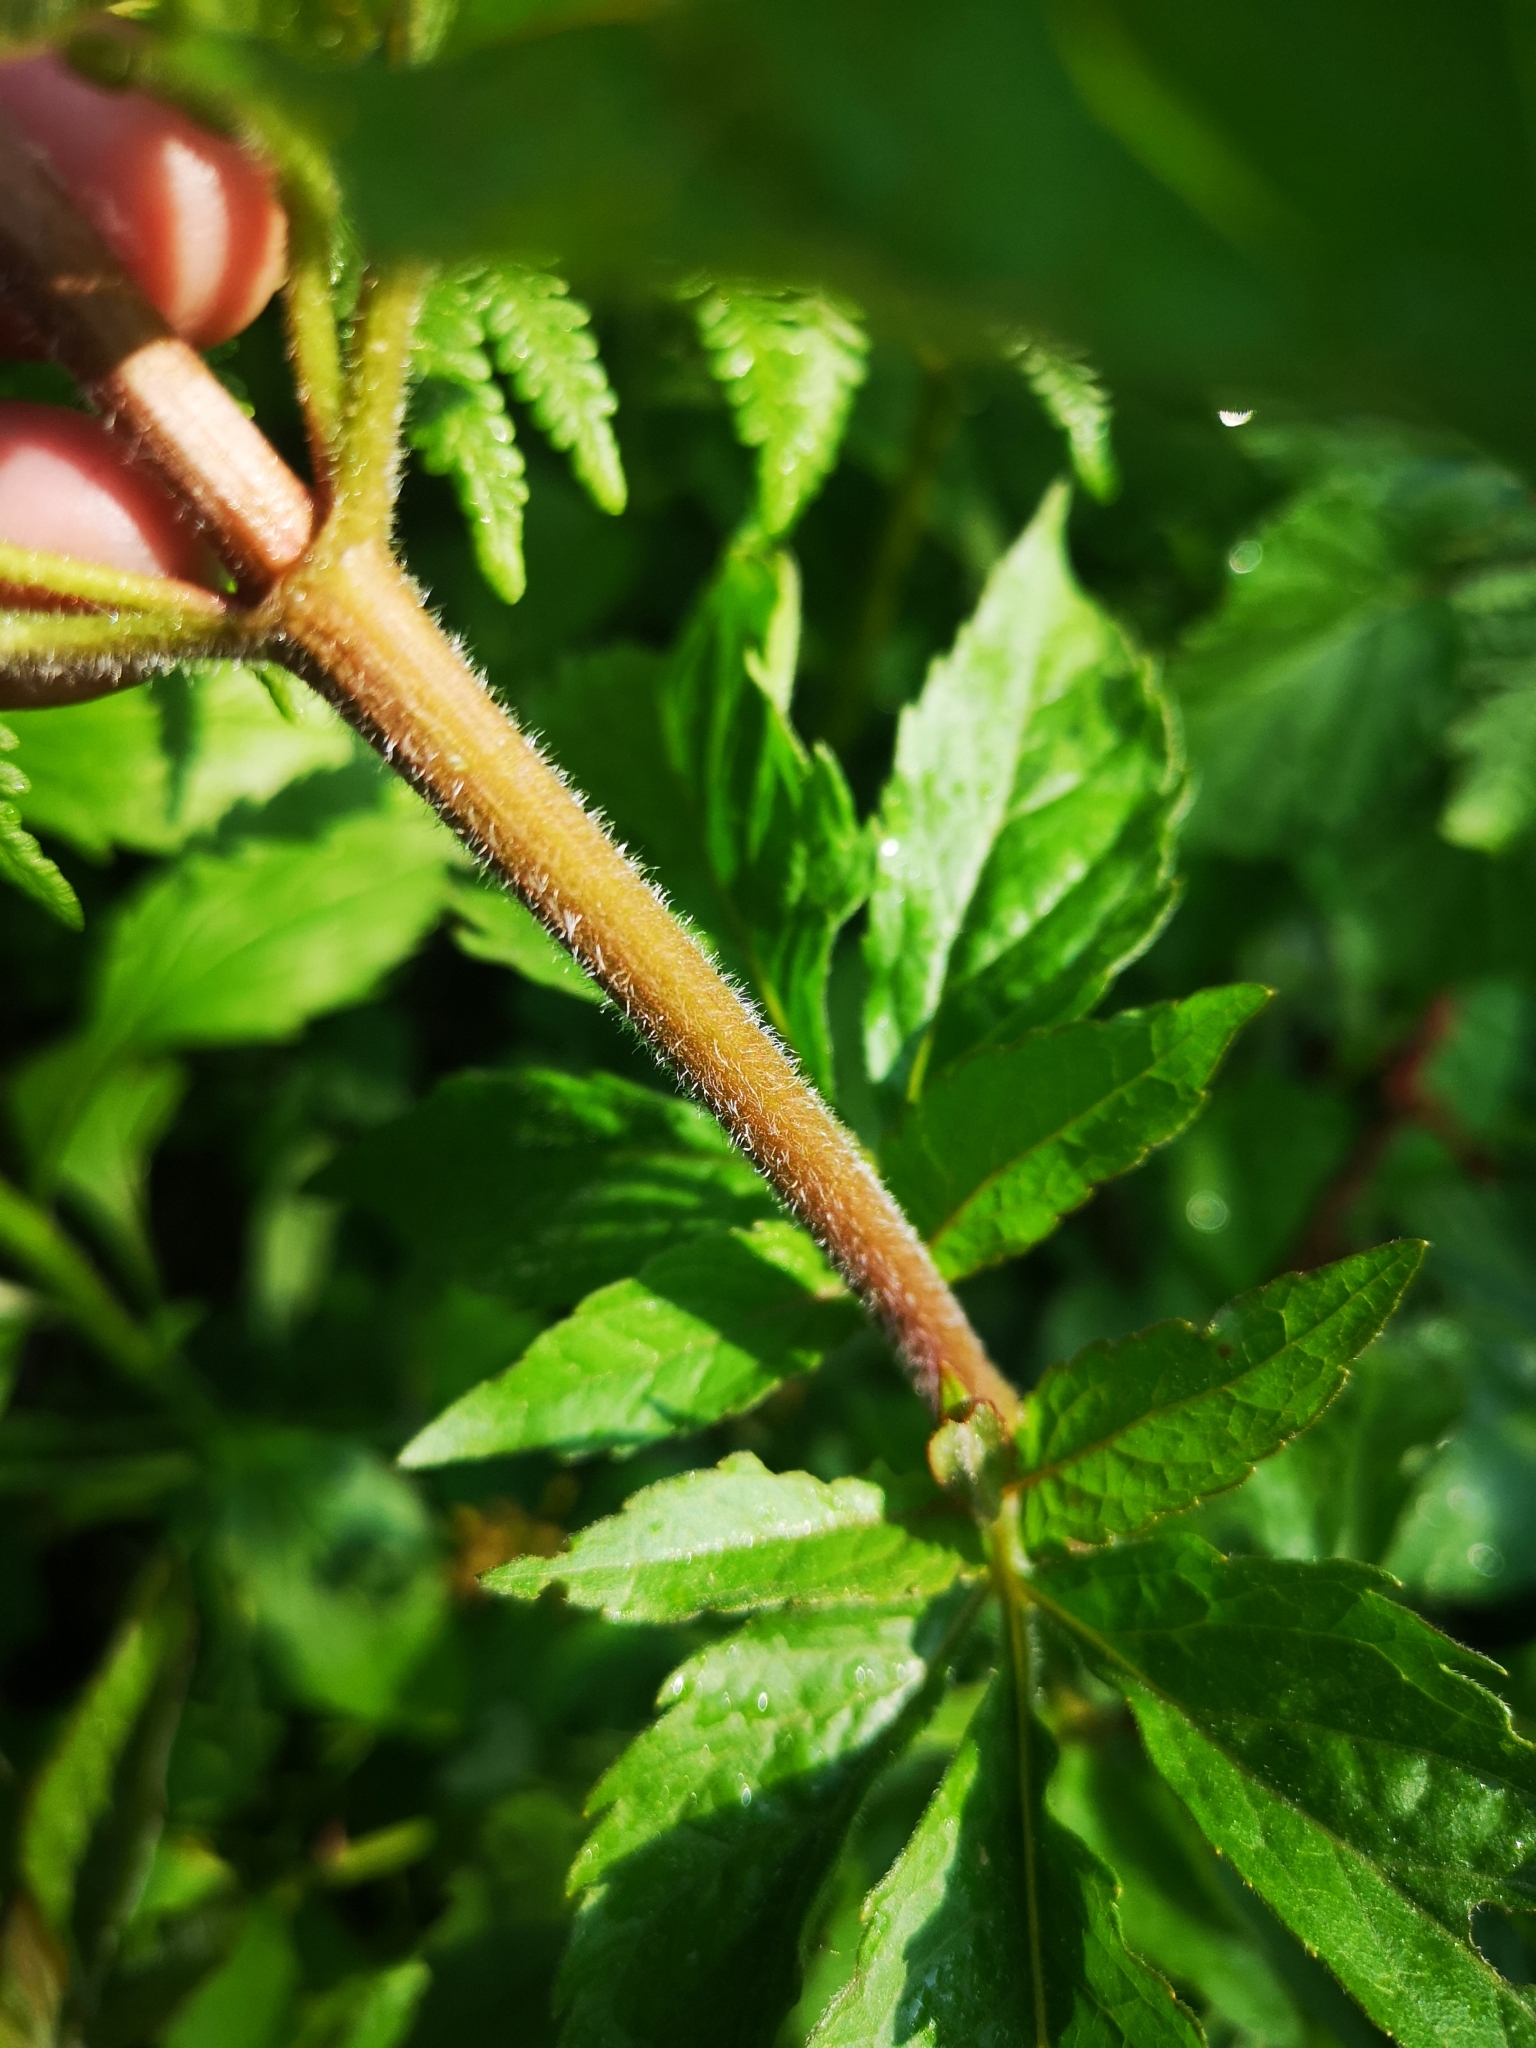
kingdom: Plantae
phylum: Tracheophyta
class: Magnoliopsida
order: Asterales
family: Asteraceae
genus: Eupatorium
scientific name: Eupatorium cannabinum
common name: Hemp-agrimony
